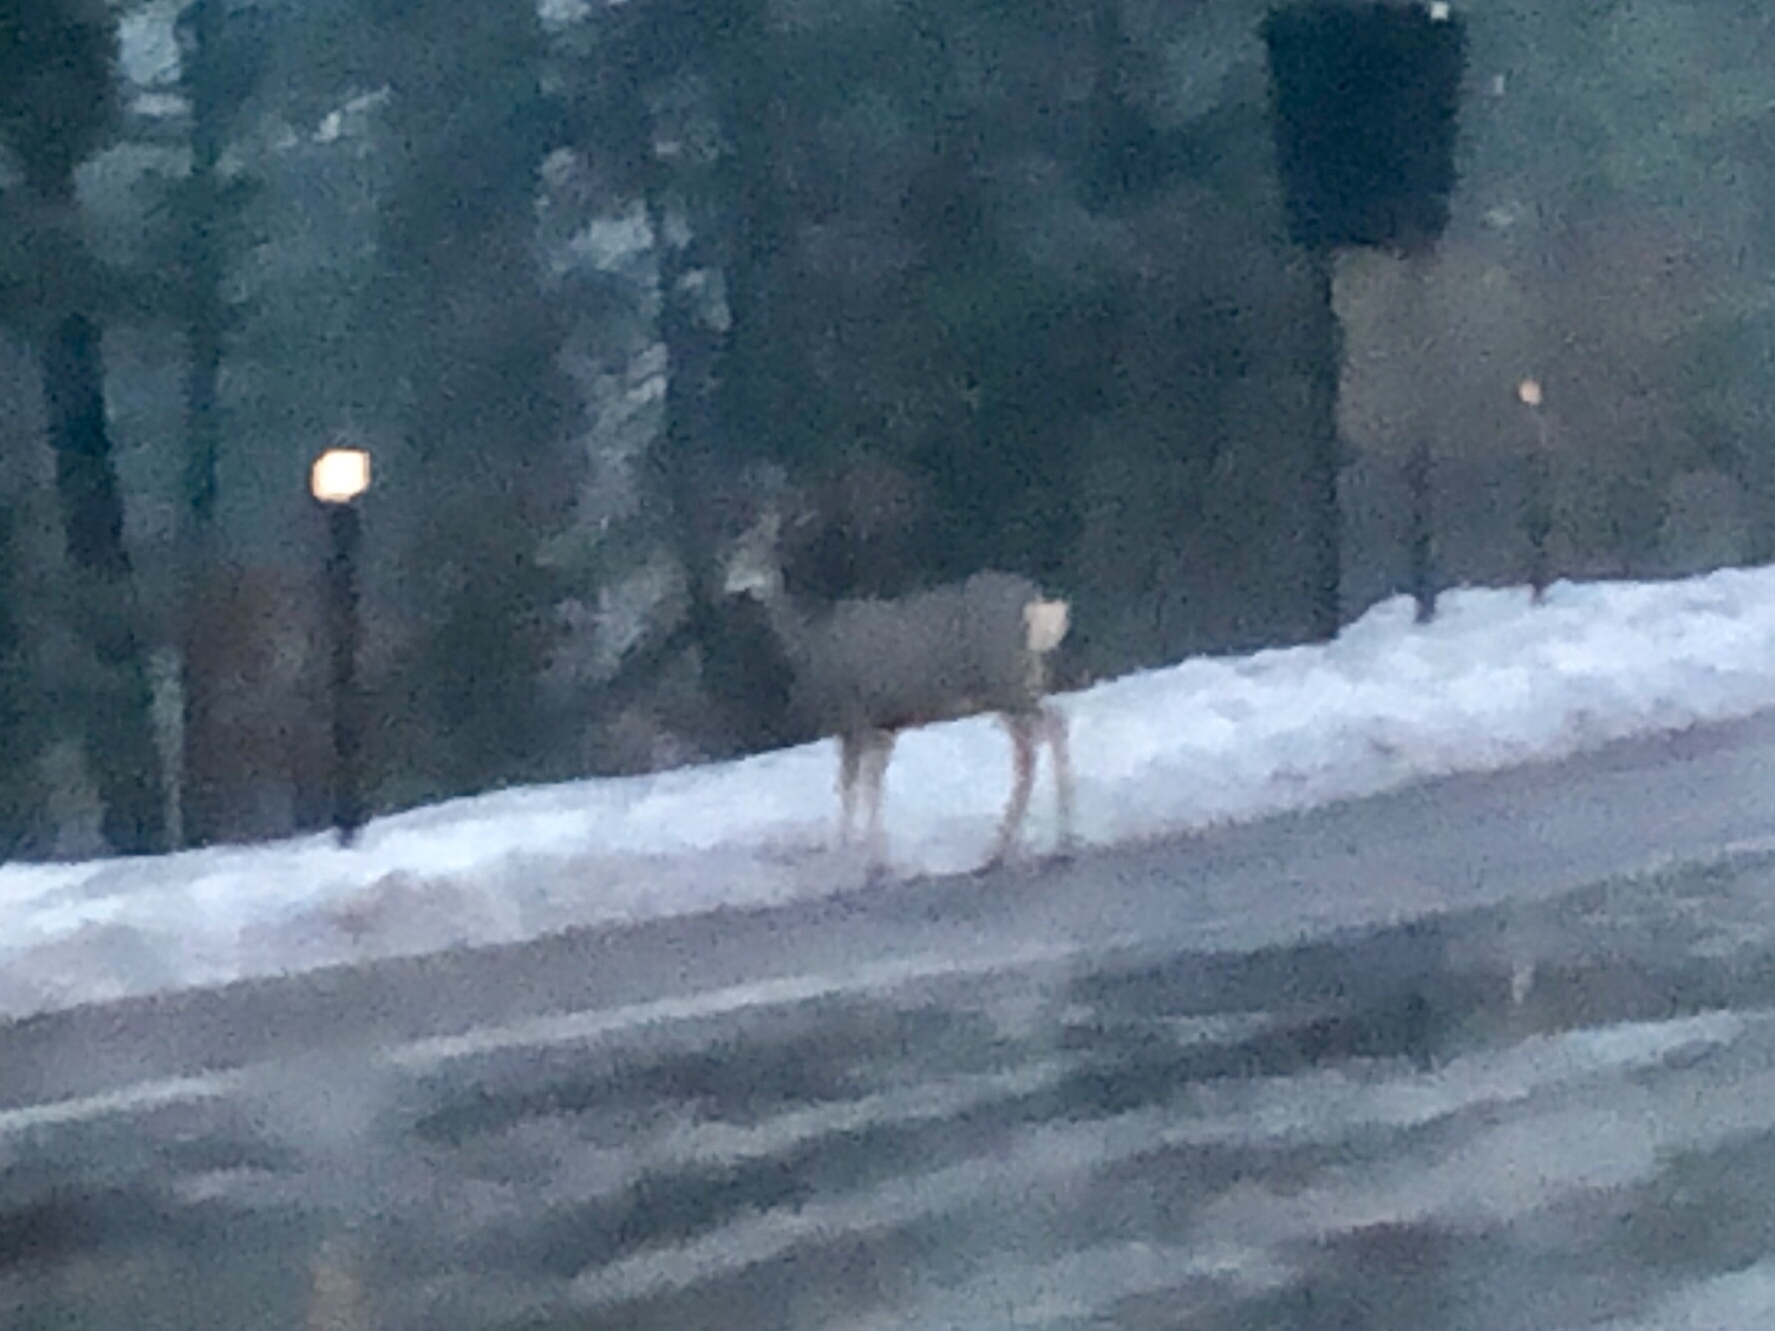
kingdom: Animalia
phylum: Chordata
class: Mammalia
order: Artiodactyla
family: Cervidae
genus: Odocoileus
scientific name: Odocoileus hemionus
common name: Mule deer
